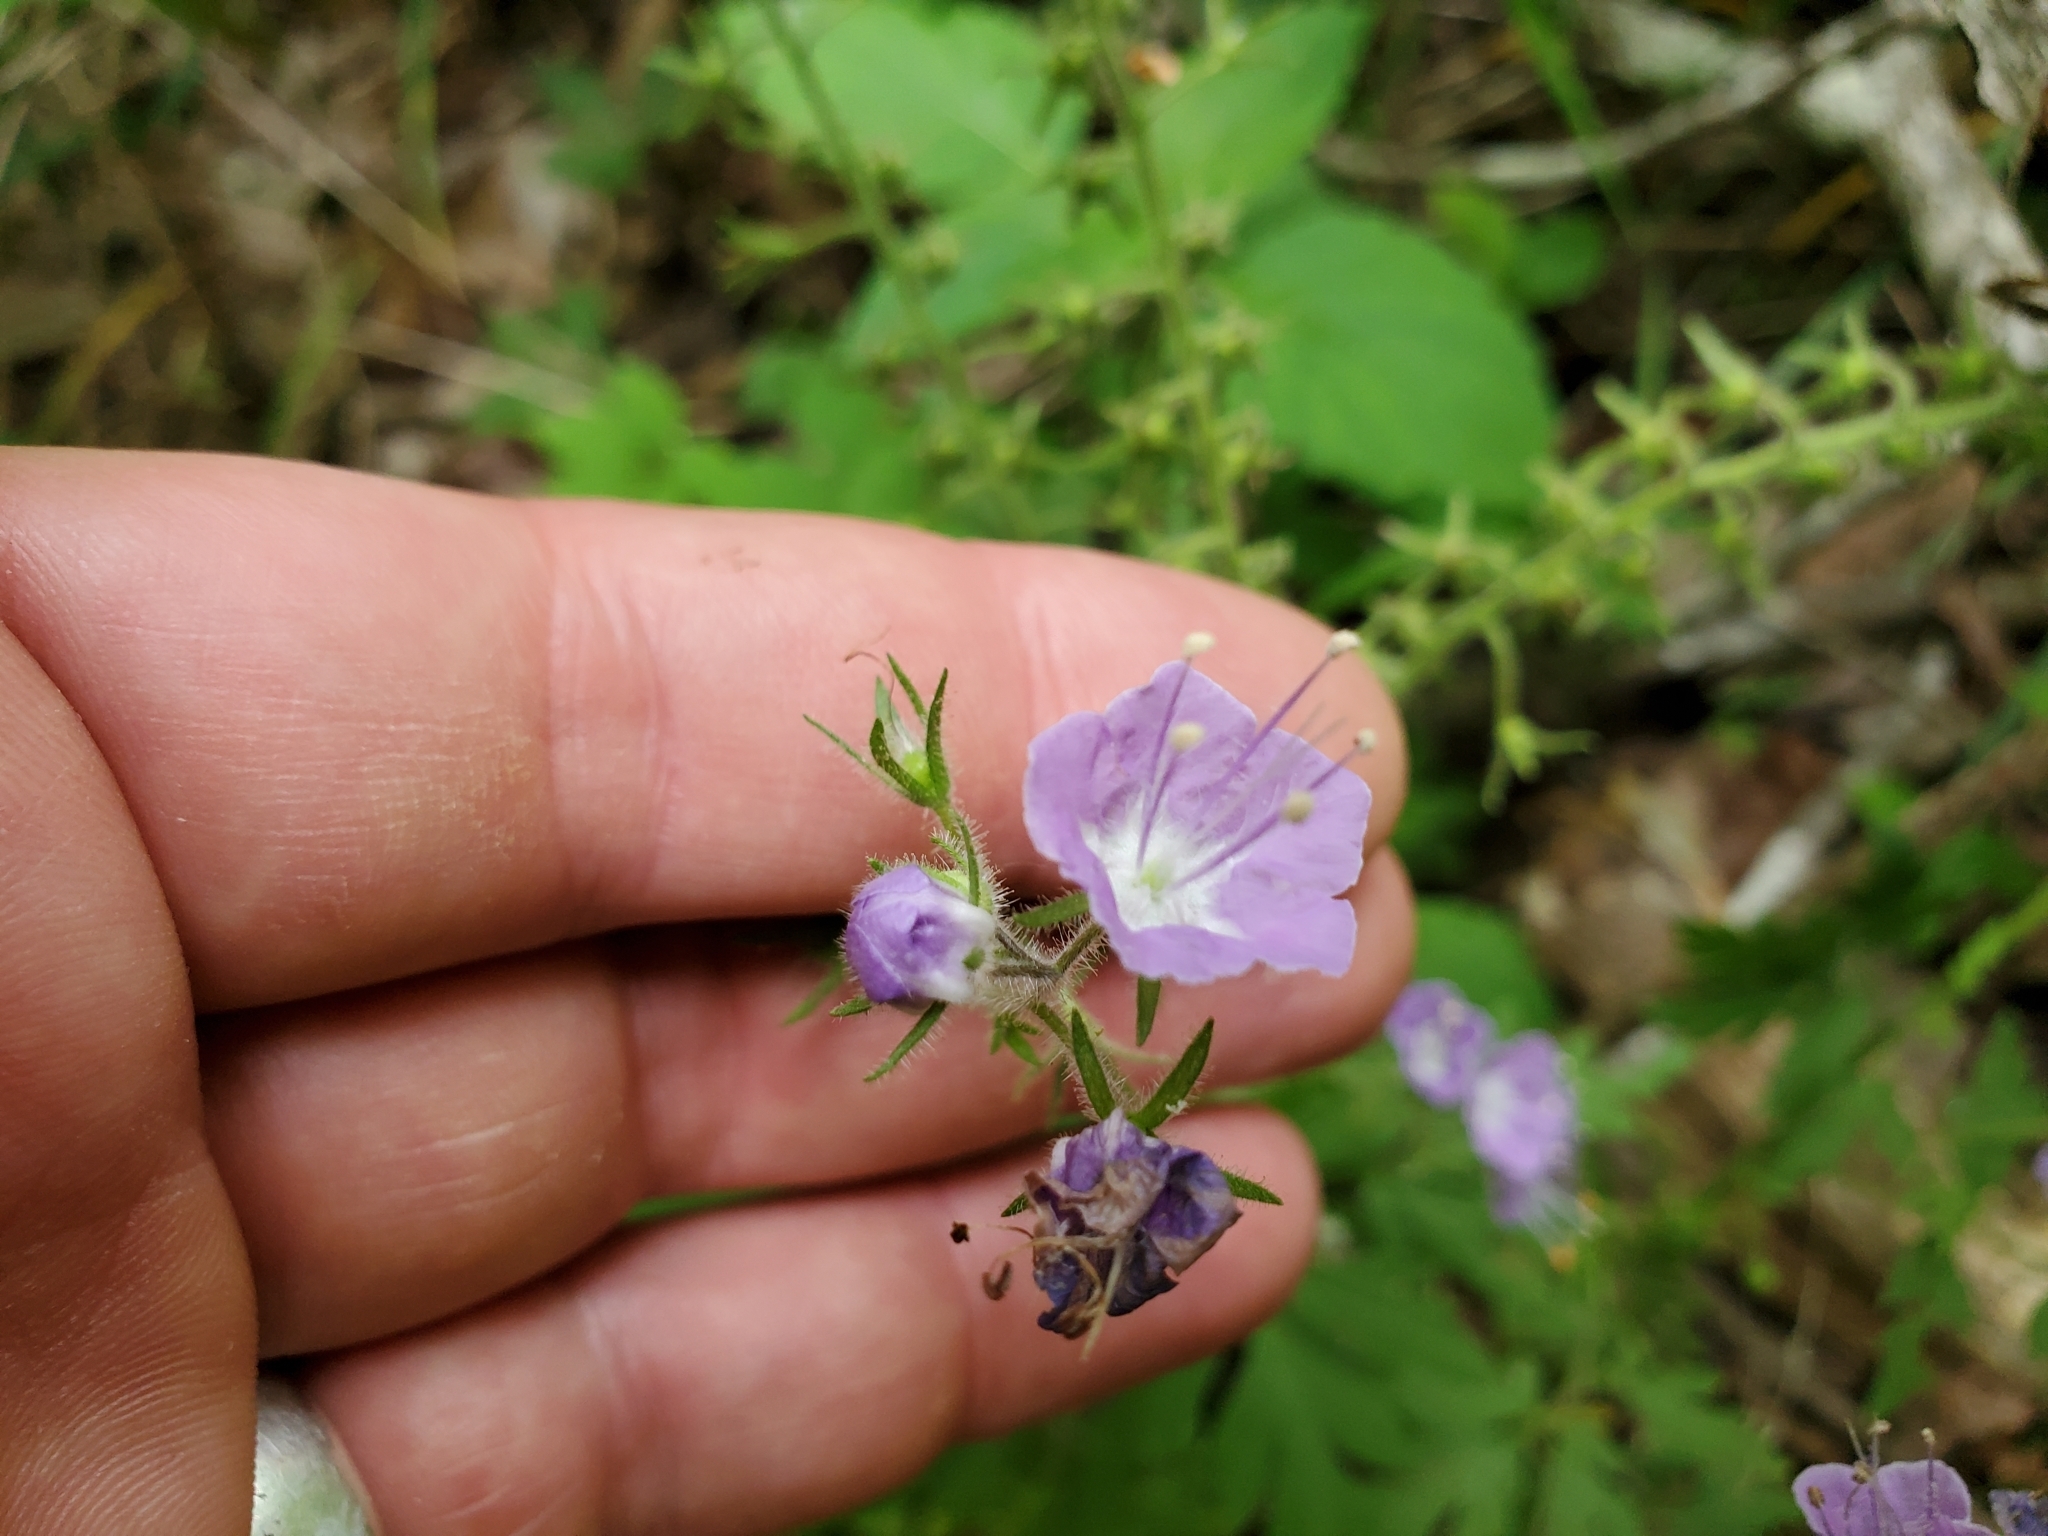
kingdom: Plantae
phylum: Tracheophyta
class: Magnoliopsida
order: Boraginales
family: Hydrophyllaceae
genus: Phacelia
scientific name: Phacelia bipinnatifida
